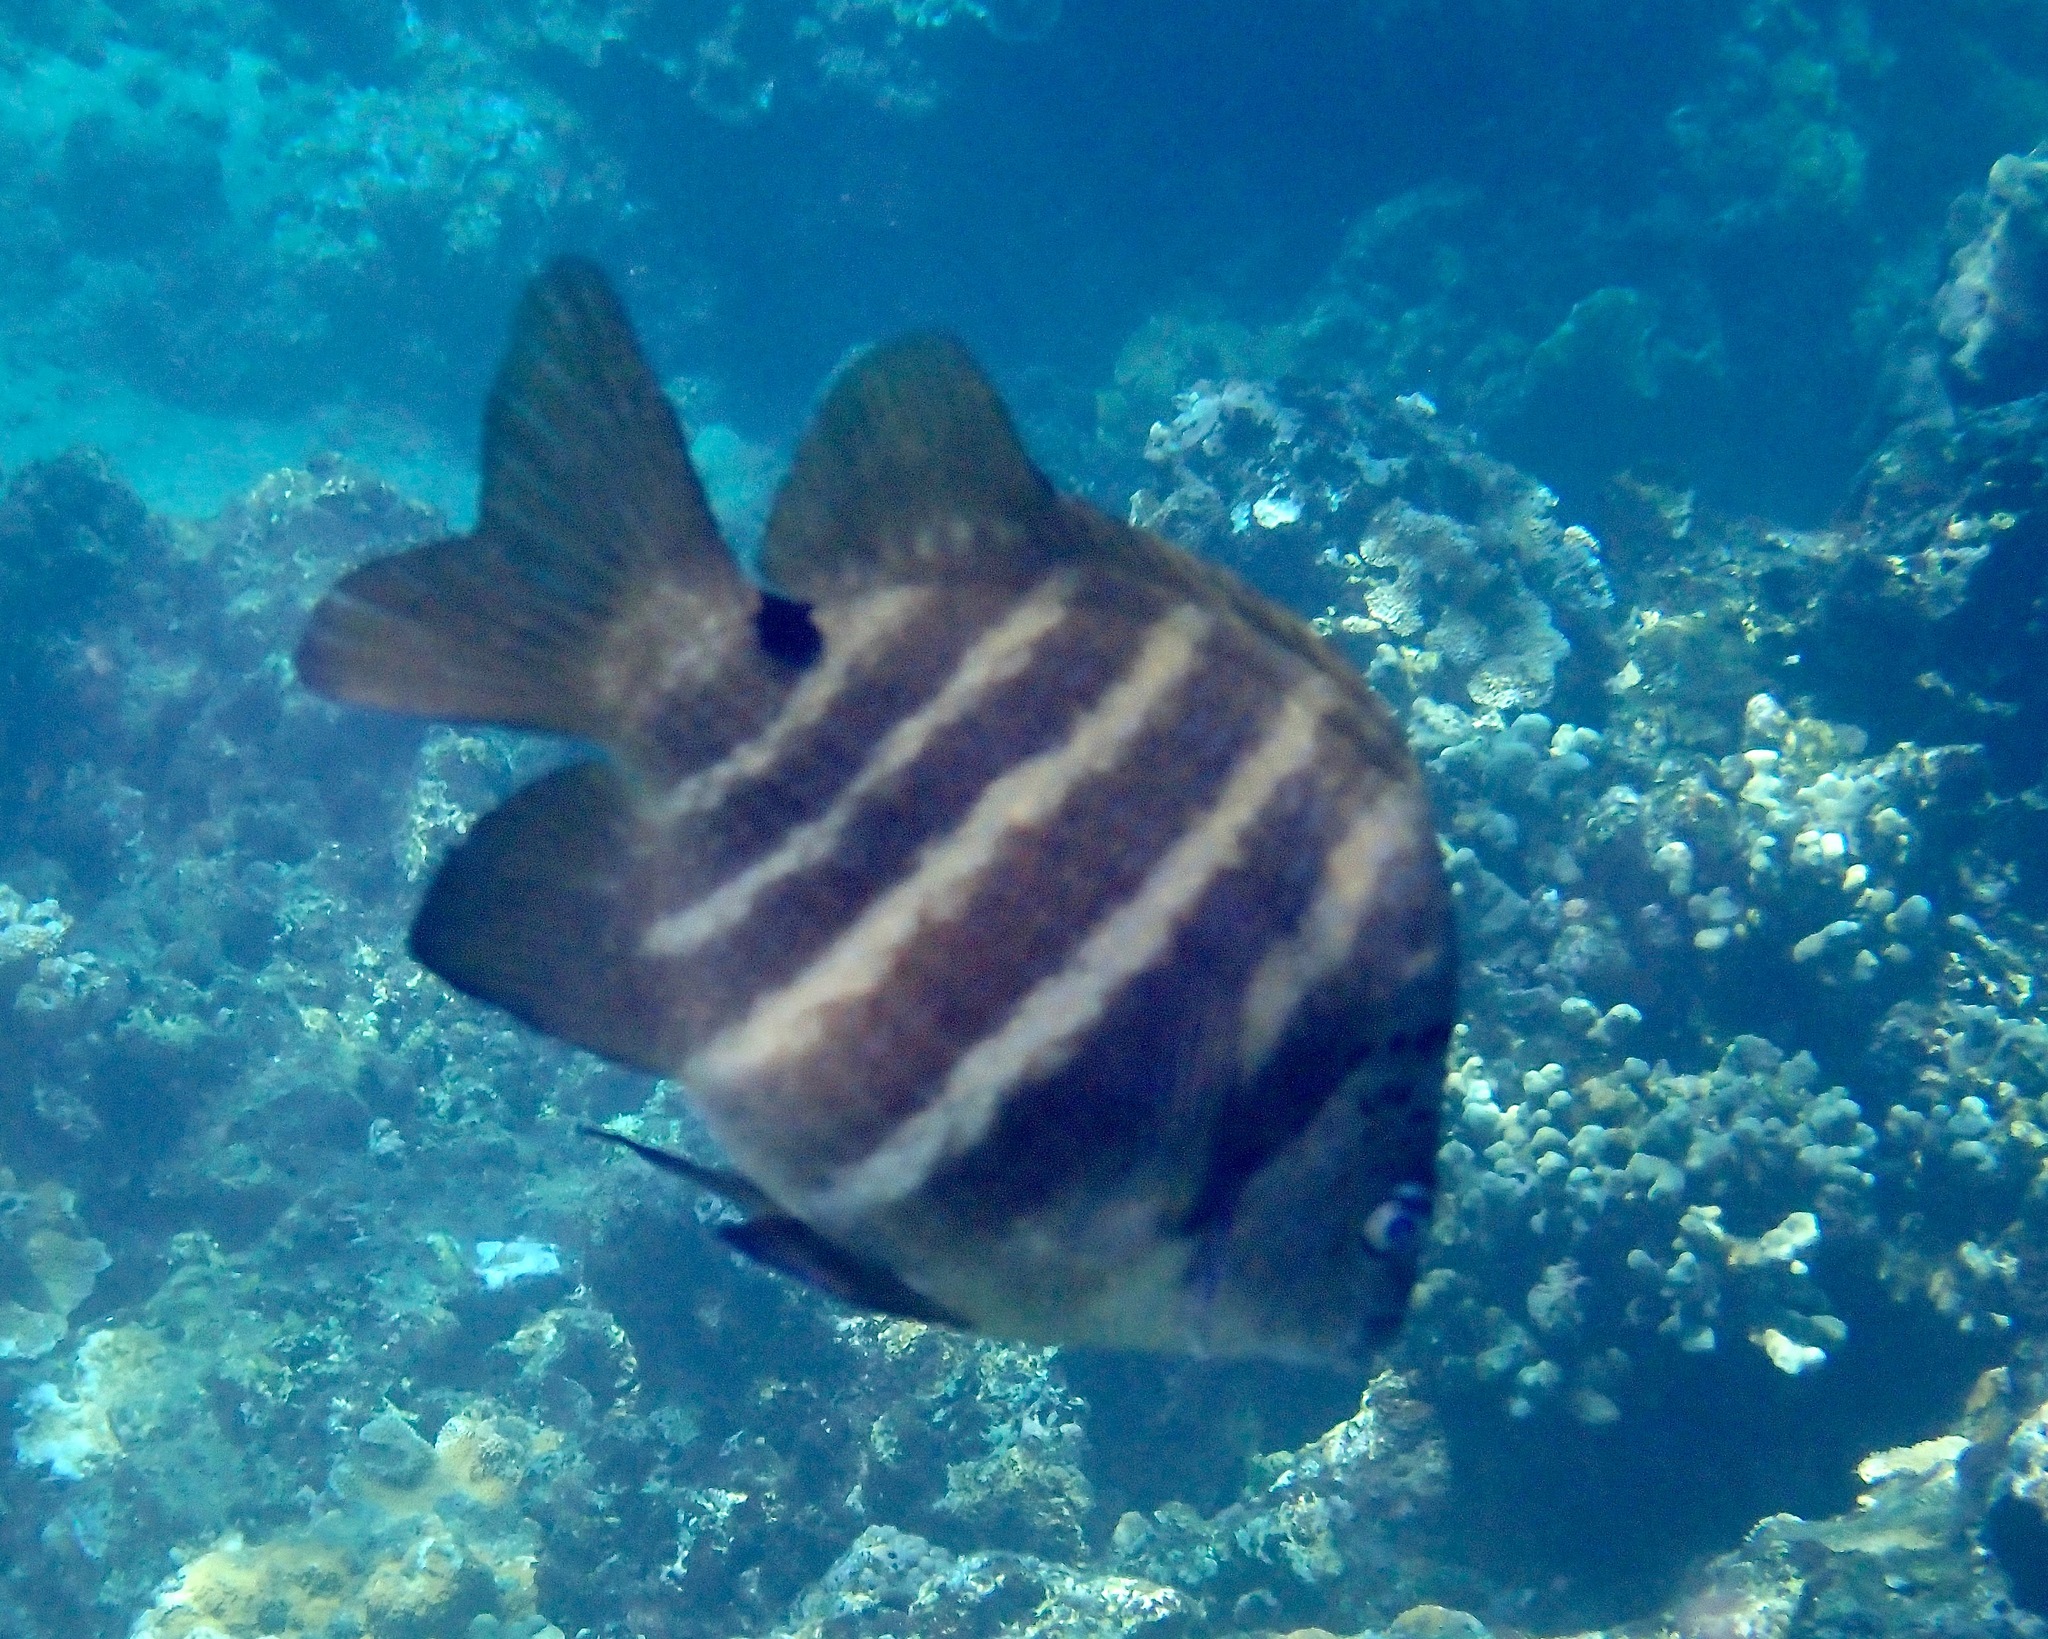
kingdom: Animalia
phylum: Chordata
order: Perciformes
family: Pomacentridae
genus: Abudefduf
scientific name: Abudefduf sordidus
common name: Blackspot sergeant
